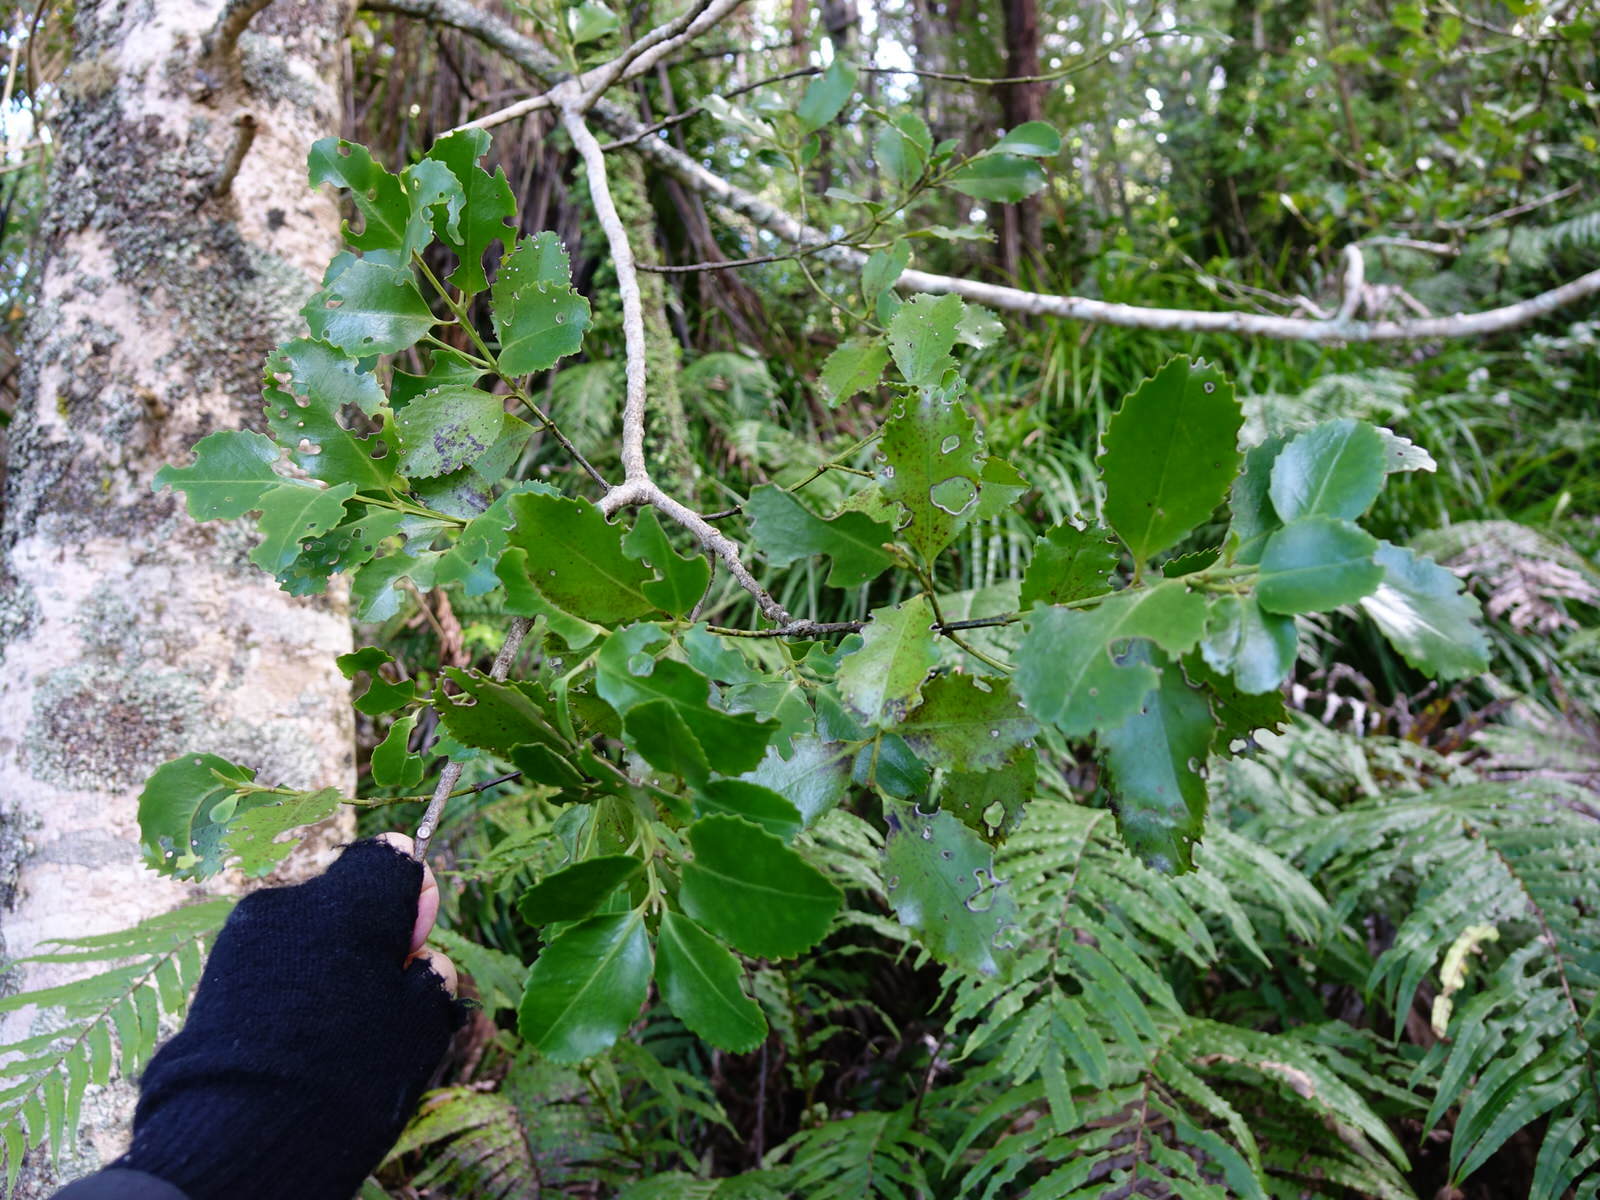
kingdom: Plantae
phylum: Tracheophyta
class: Magnoliopsida
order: Laurales
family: Atherospermataceae
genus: Laurelia
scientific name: Laurelia novae-zelandiae
